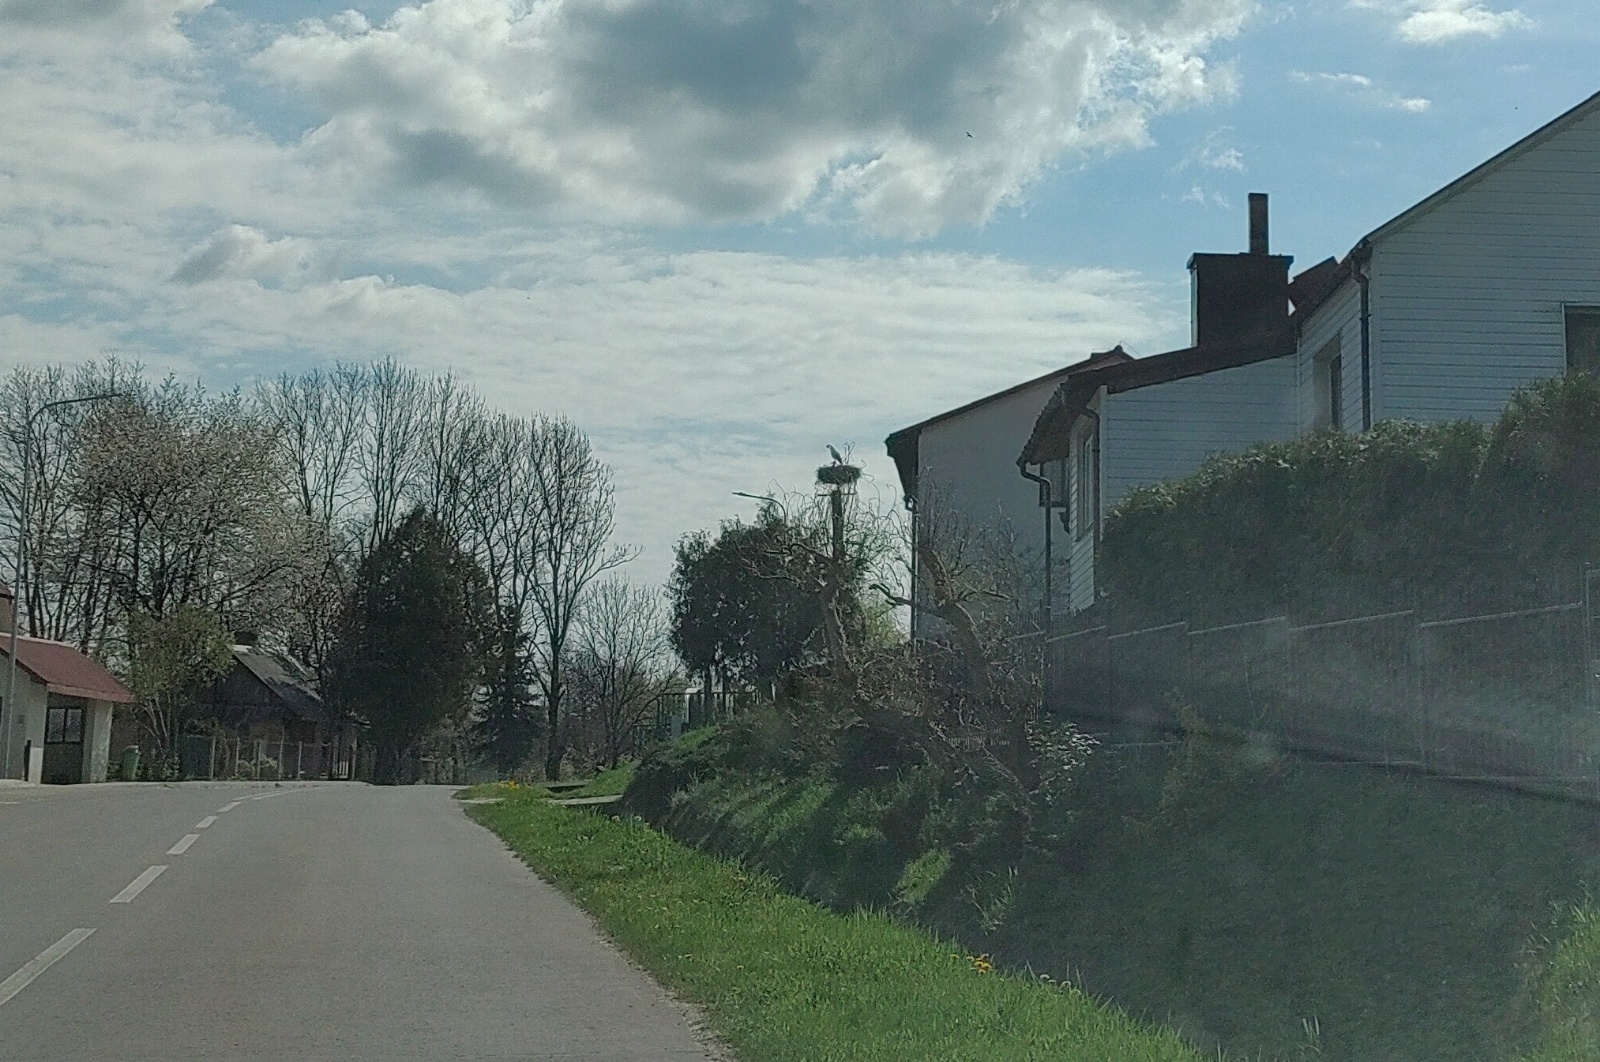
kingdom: Animalia
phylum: Chordata
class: Aves
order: Ciconiiformes
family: Ciconiidae
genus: Ciconia
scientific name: Ciconia ciconia
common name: White stork
